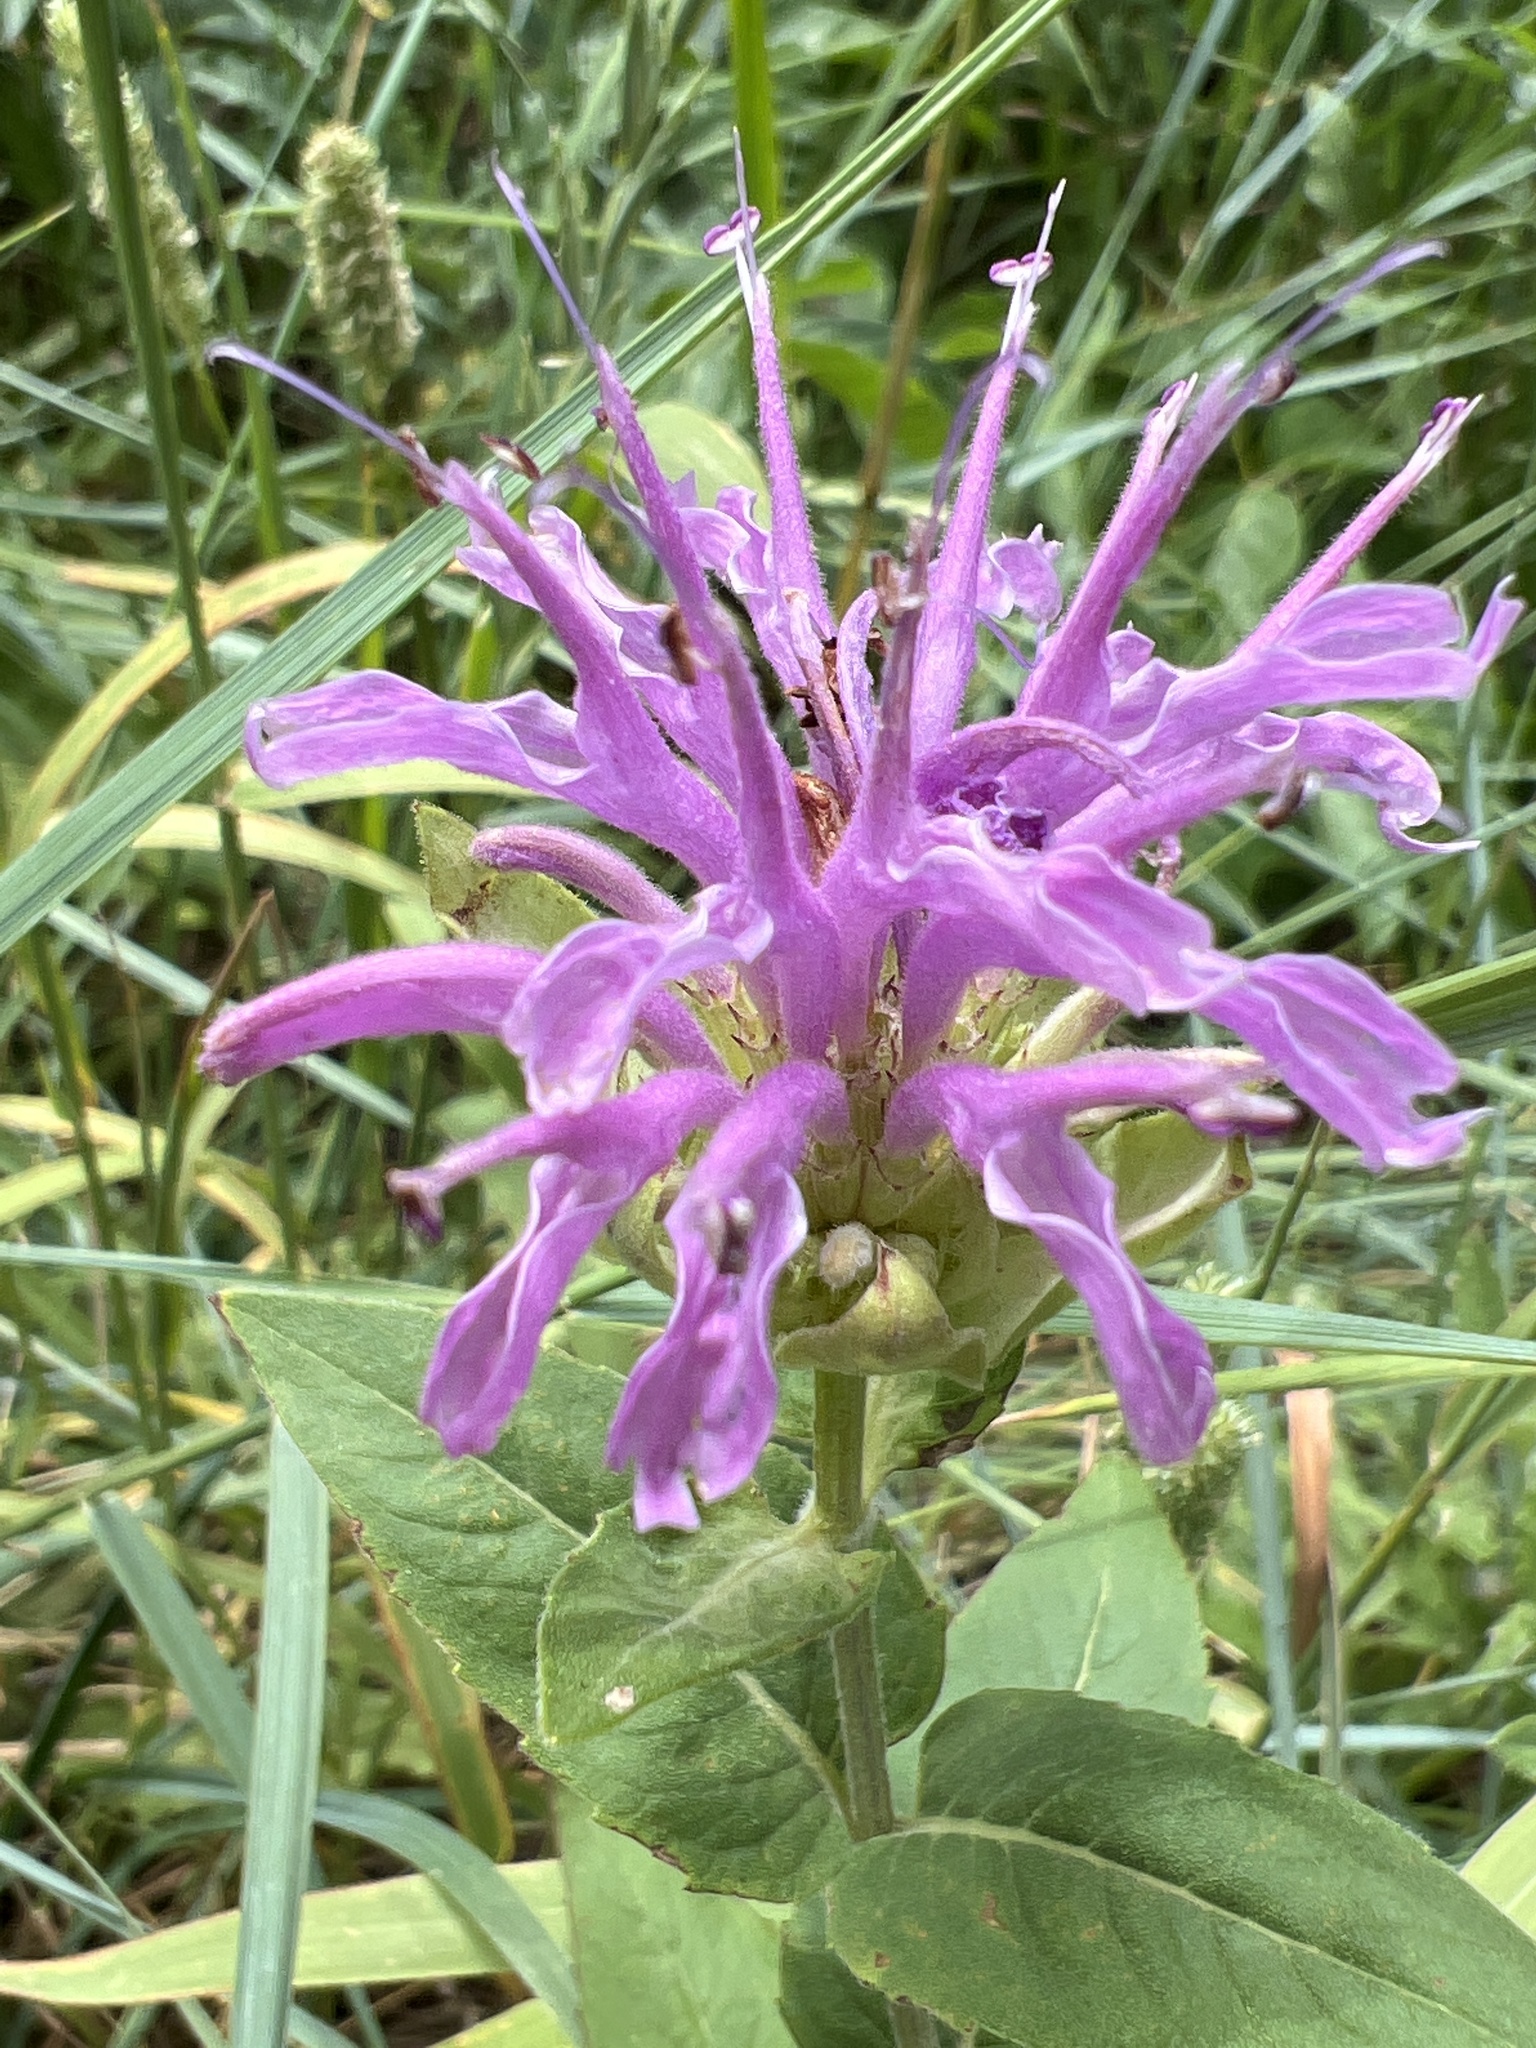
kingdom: Plantae
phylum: Tracheophyta
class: Magnoliopsida
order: Lamiales
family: Lamiaceae
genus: Monarda
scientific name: Monarda fistulosa
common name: Purple beebalm
